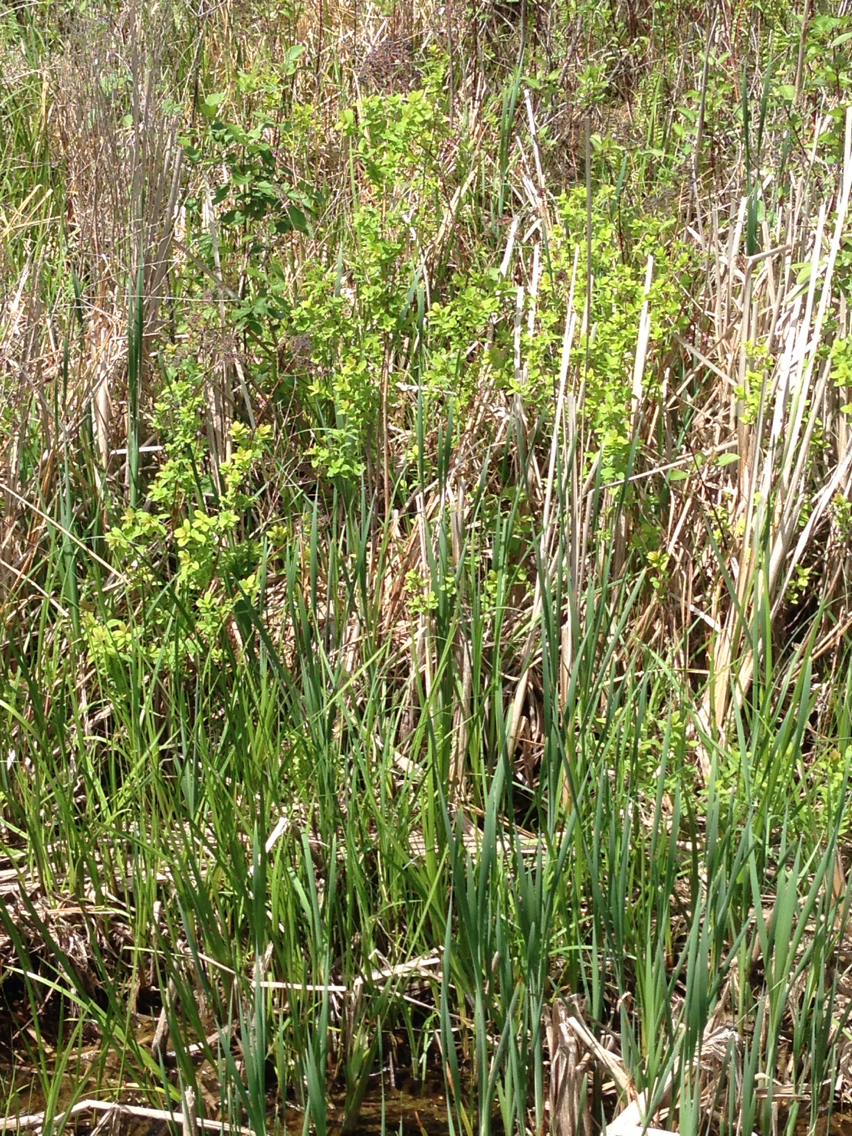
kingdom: Plantae
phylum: Tracheophyta
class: Magnoliopsida
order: Rosales
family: Rosaceae
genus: Spiraea
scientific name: Spiraea alba
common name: Pale bridewort
